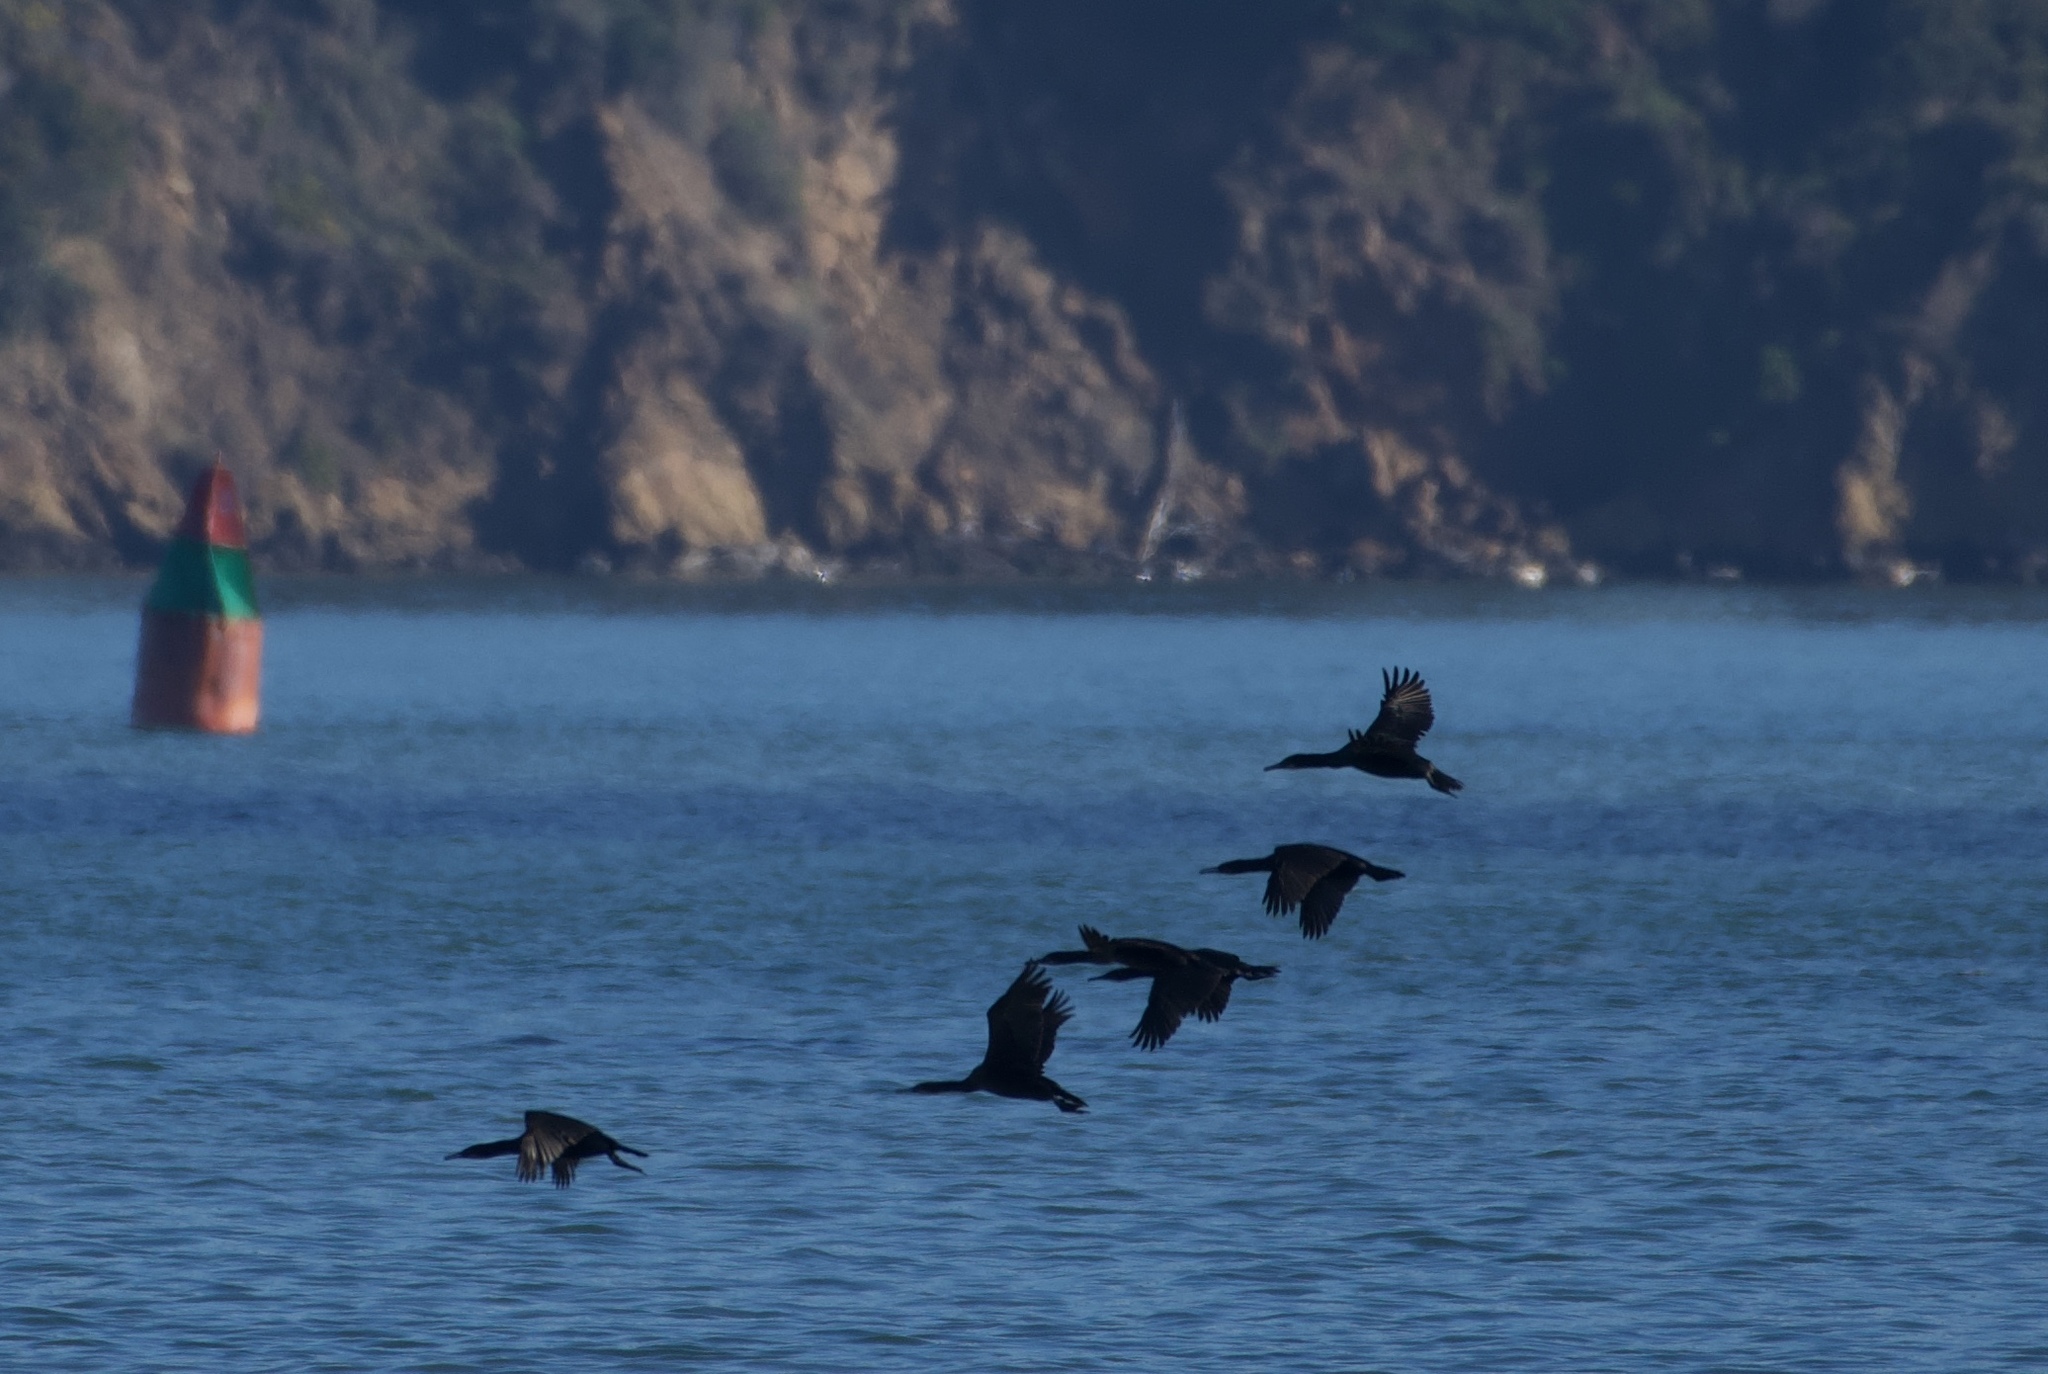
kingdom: Animalia
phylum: Chordata
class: Aves
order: Suliformes
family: Phalacrocoracidae
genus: Urile
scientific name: Urile penicillatus
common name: Brandt's cormorant
